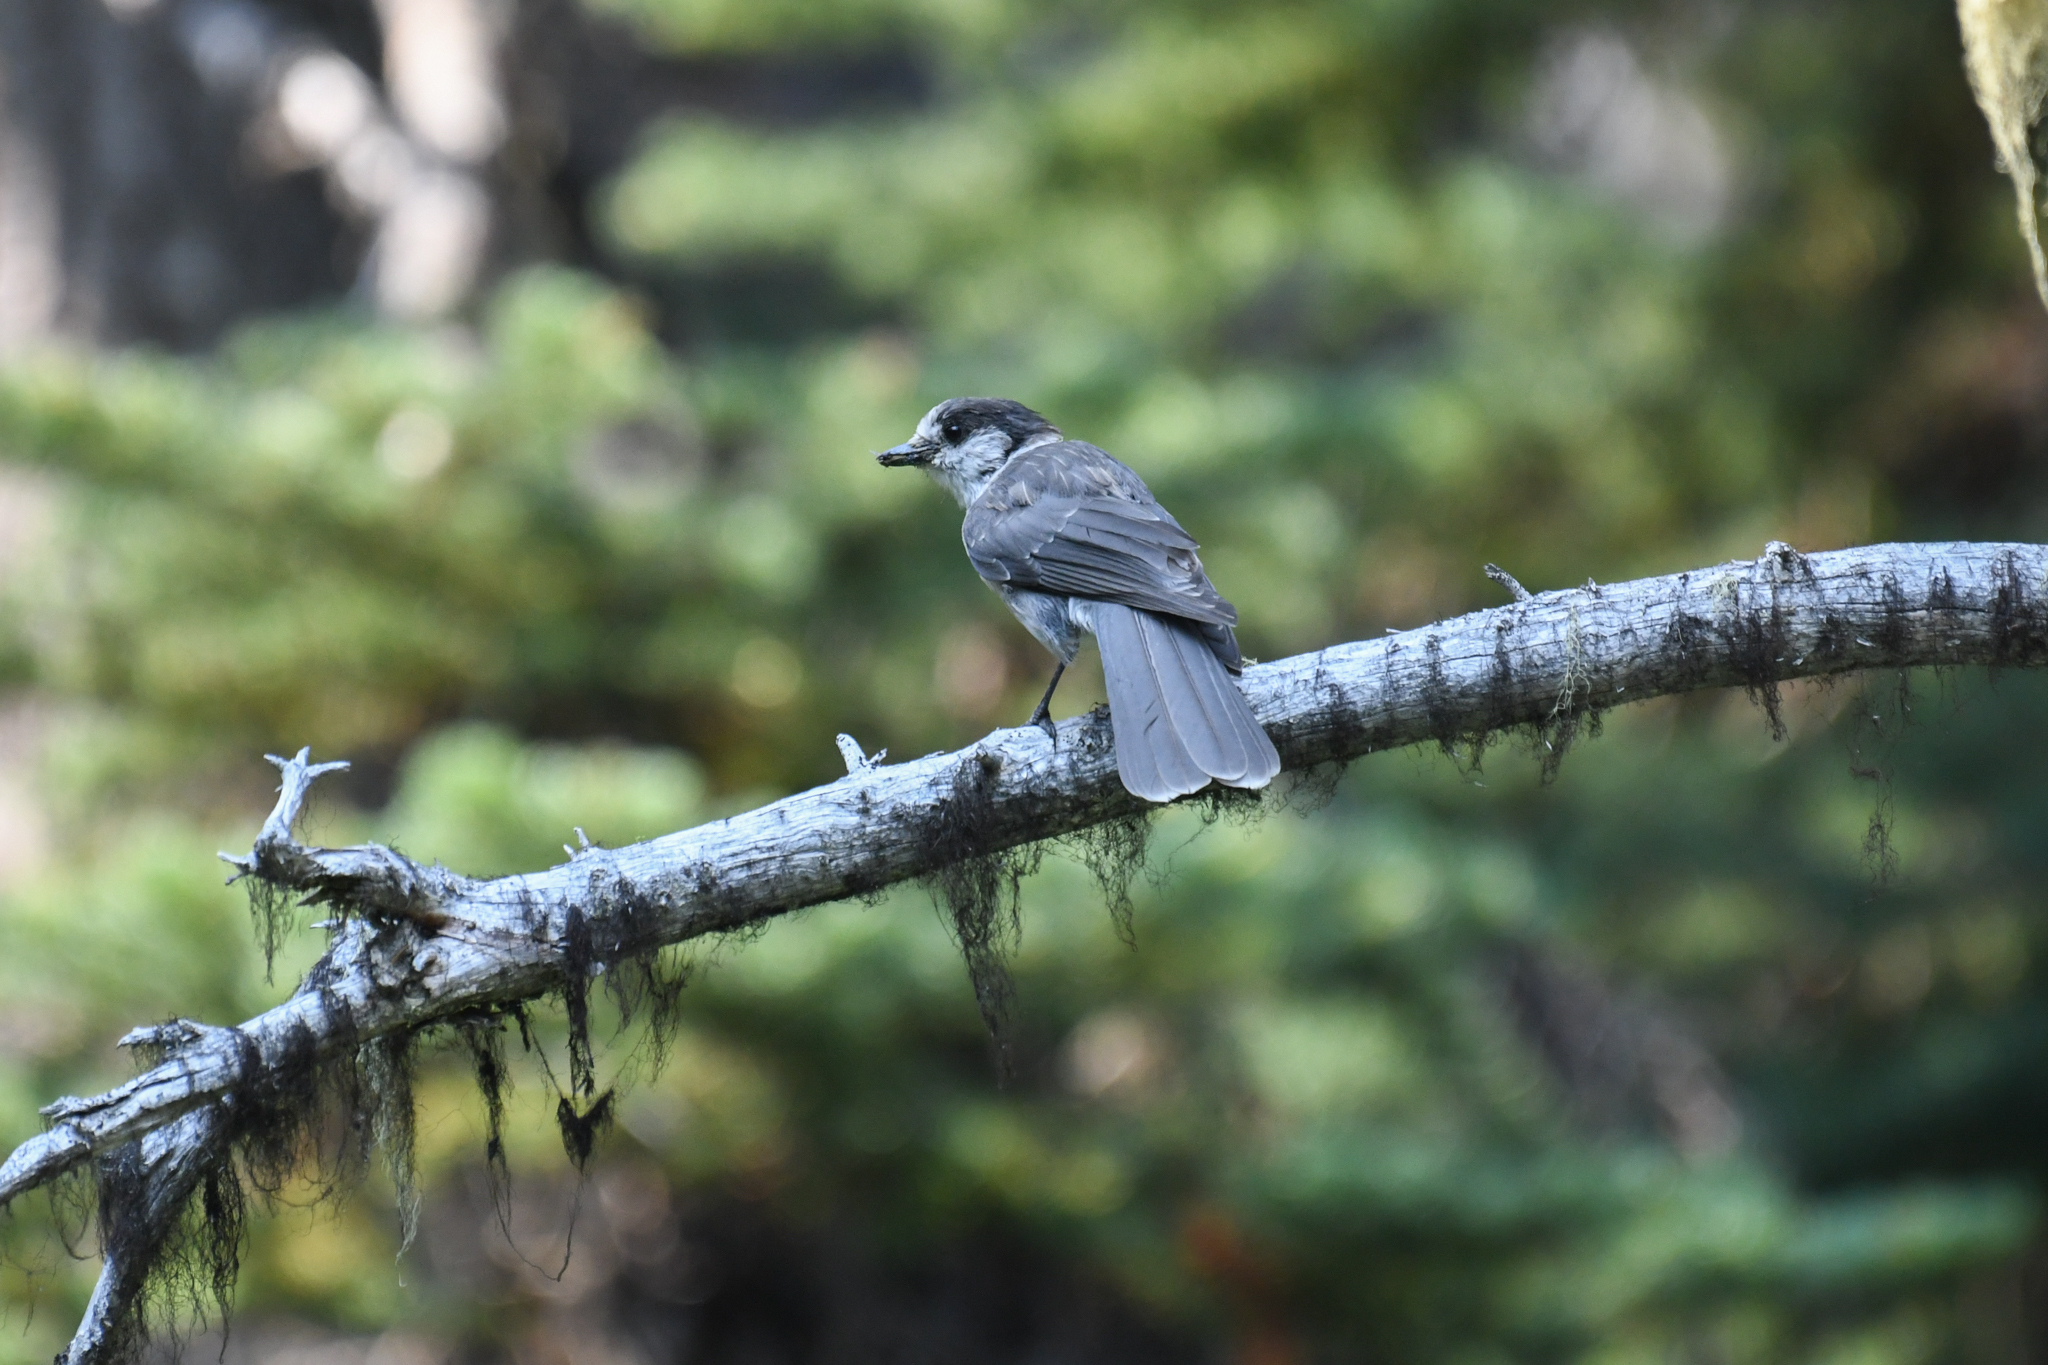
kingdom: Animalia
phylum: Chordata
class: Aves
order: Passeriformes
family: Corvidae
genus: Perisoreus
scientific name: Perisoreus canadensis
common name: Gray jay
